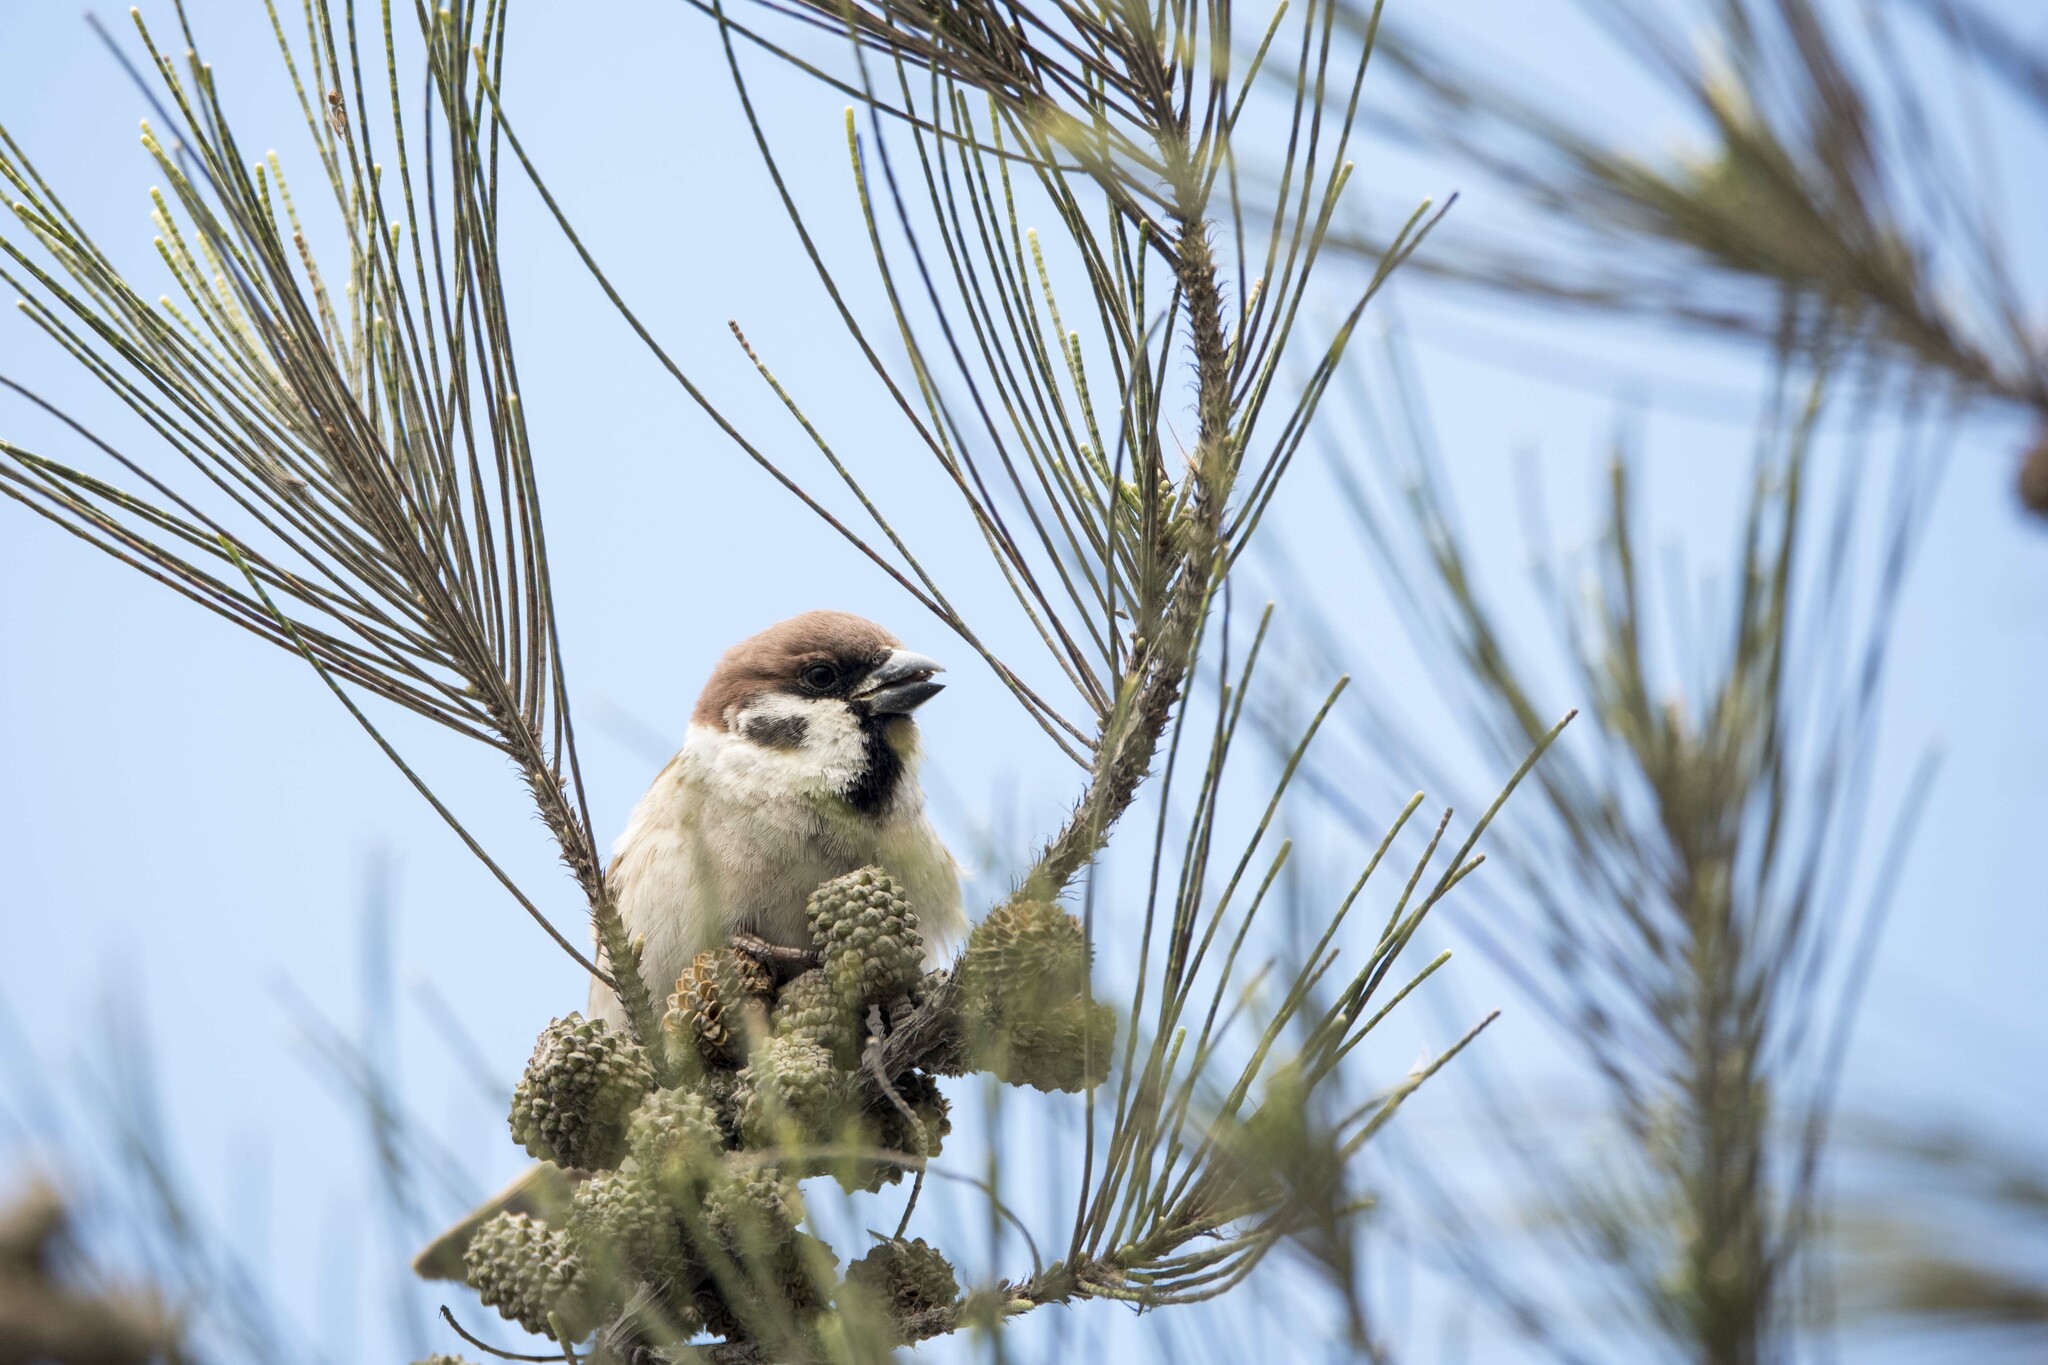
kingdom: Animalia
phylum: Chordata
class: Aves
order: Passeriformes
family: Passeridae
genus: Passer
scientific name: Passer montanus
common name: Eurasian tree sparrow
